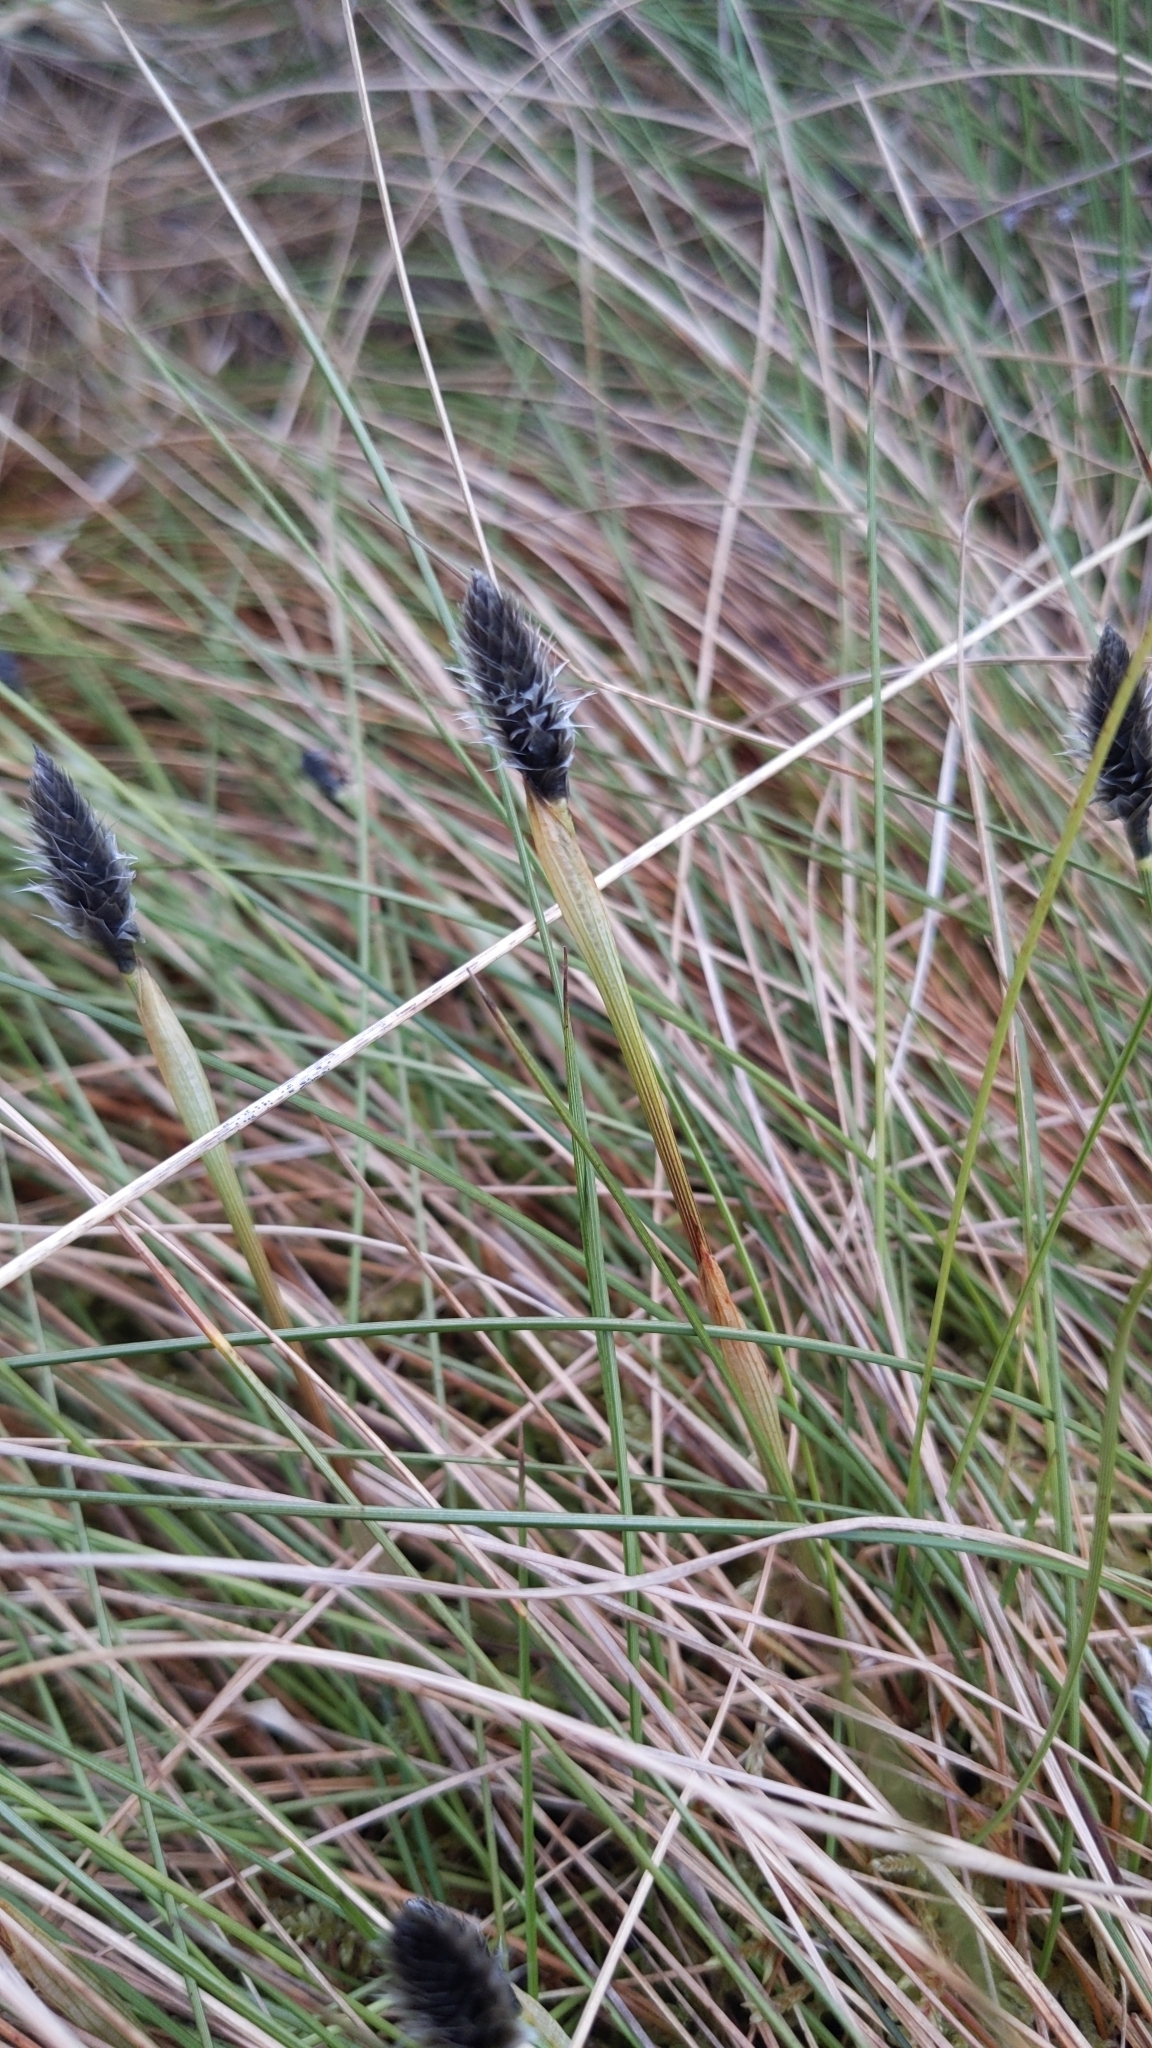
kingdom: Plantae
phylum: Tracheophyta
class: Liliopsida
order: Poales
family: Cyperaceae
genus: Eriophorum
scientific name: Eriophorum vaginatum
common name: Hare's-tail cottongrass
